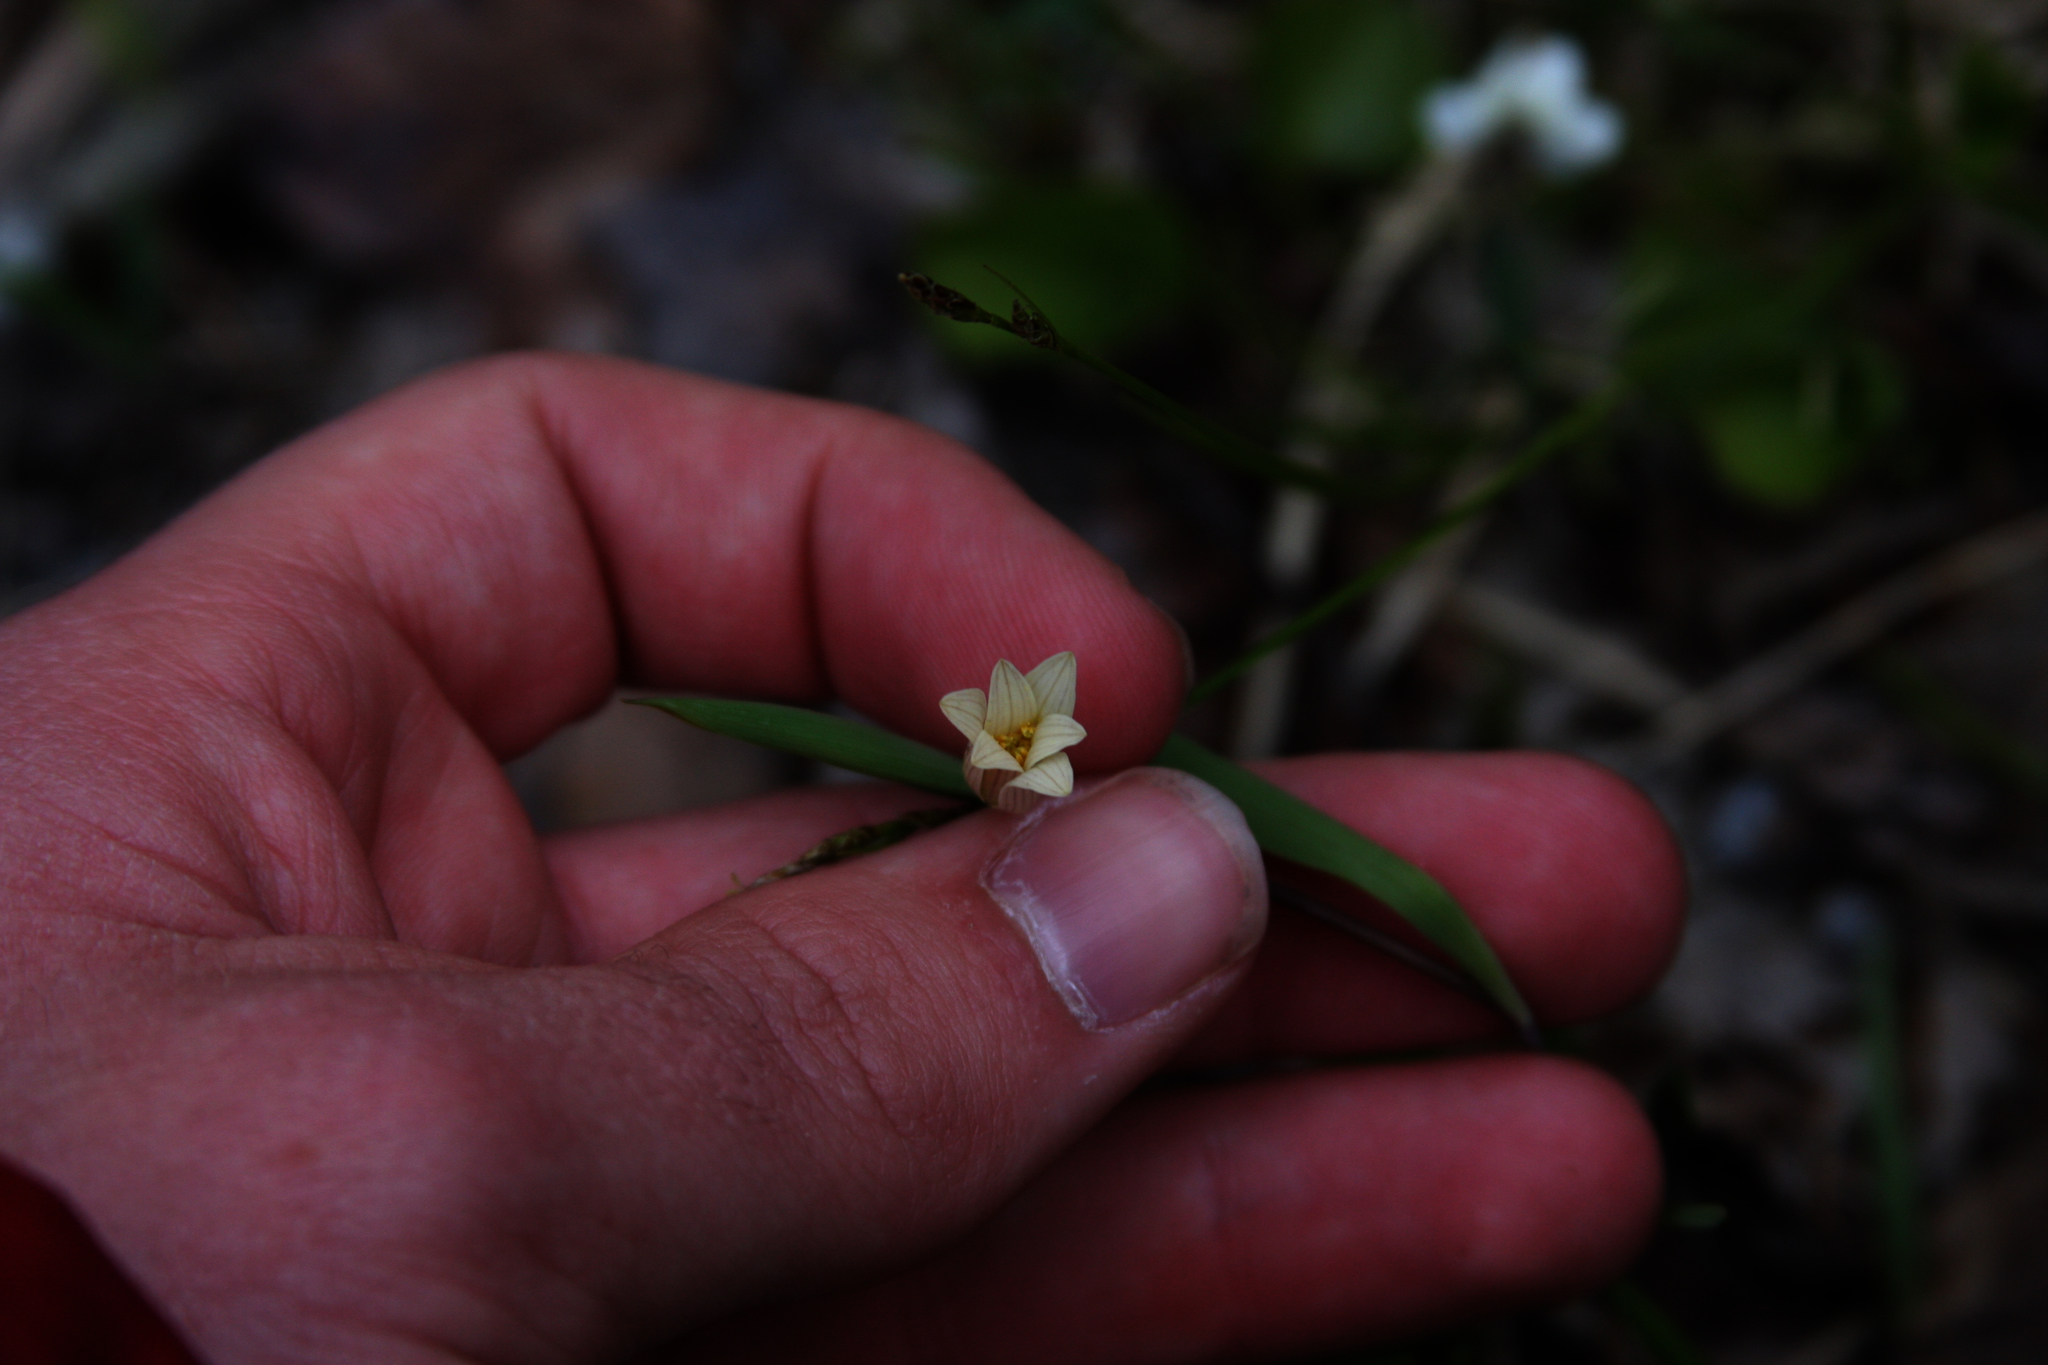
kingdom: Plantae
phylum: Tracheophyta
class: Liliopsida
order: Liliales
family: Colchicaceae
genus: Uvularia
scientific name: Uvularia sessilifolia
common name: Straw-lily
